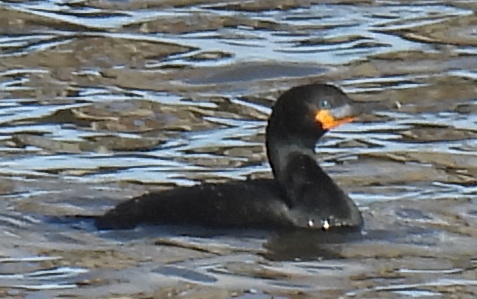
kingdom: Animalia
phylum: Chordata
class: Aves
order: Suliformes
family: Phalacrocoracidae
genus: Phalacrocorax
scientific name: Phalacrocorax capensis
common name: Cape cormorant
